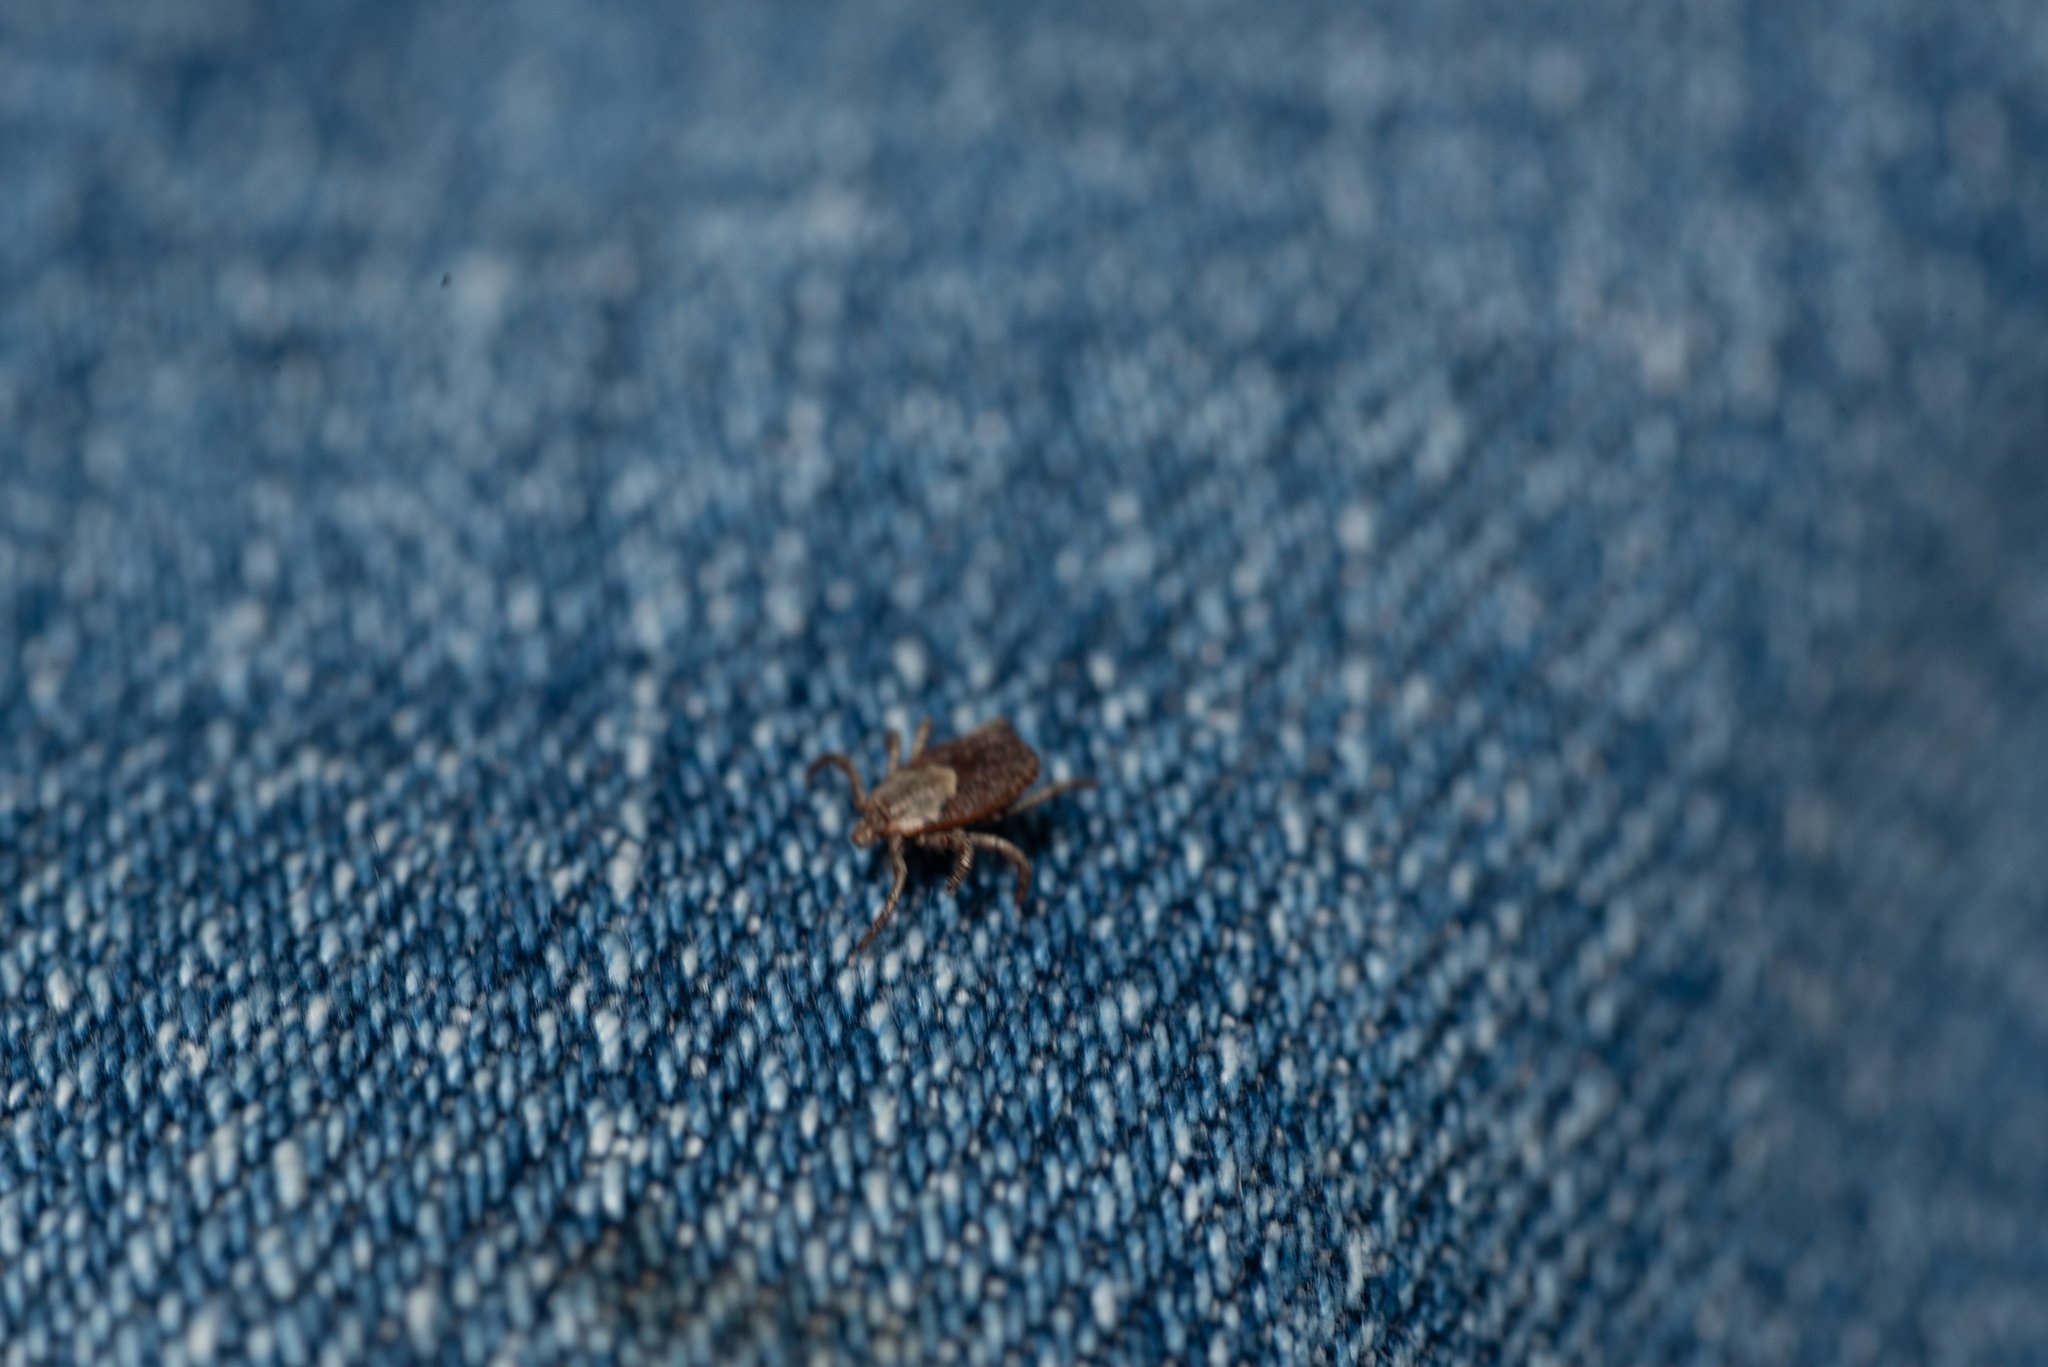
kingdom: Animalia
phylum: Arthropoda
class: Arachnida
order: Ixodida
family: Ixodidae
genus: Dermacentor
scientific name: Dermacentor occidentalis
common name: Net tick
